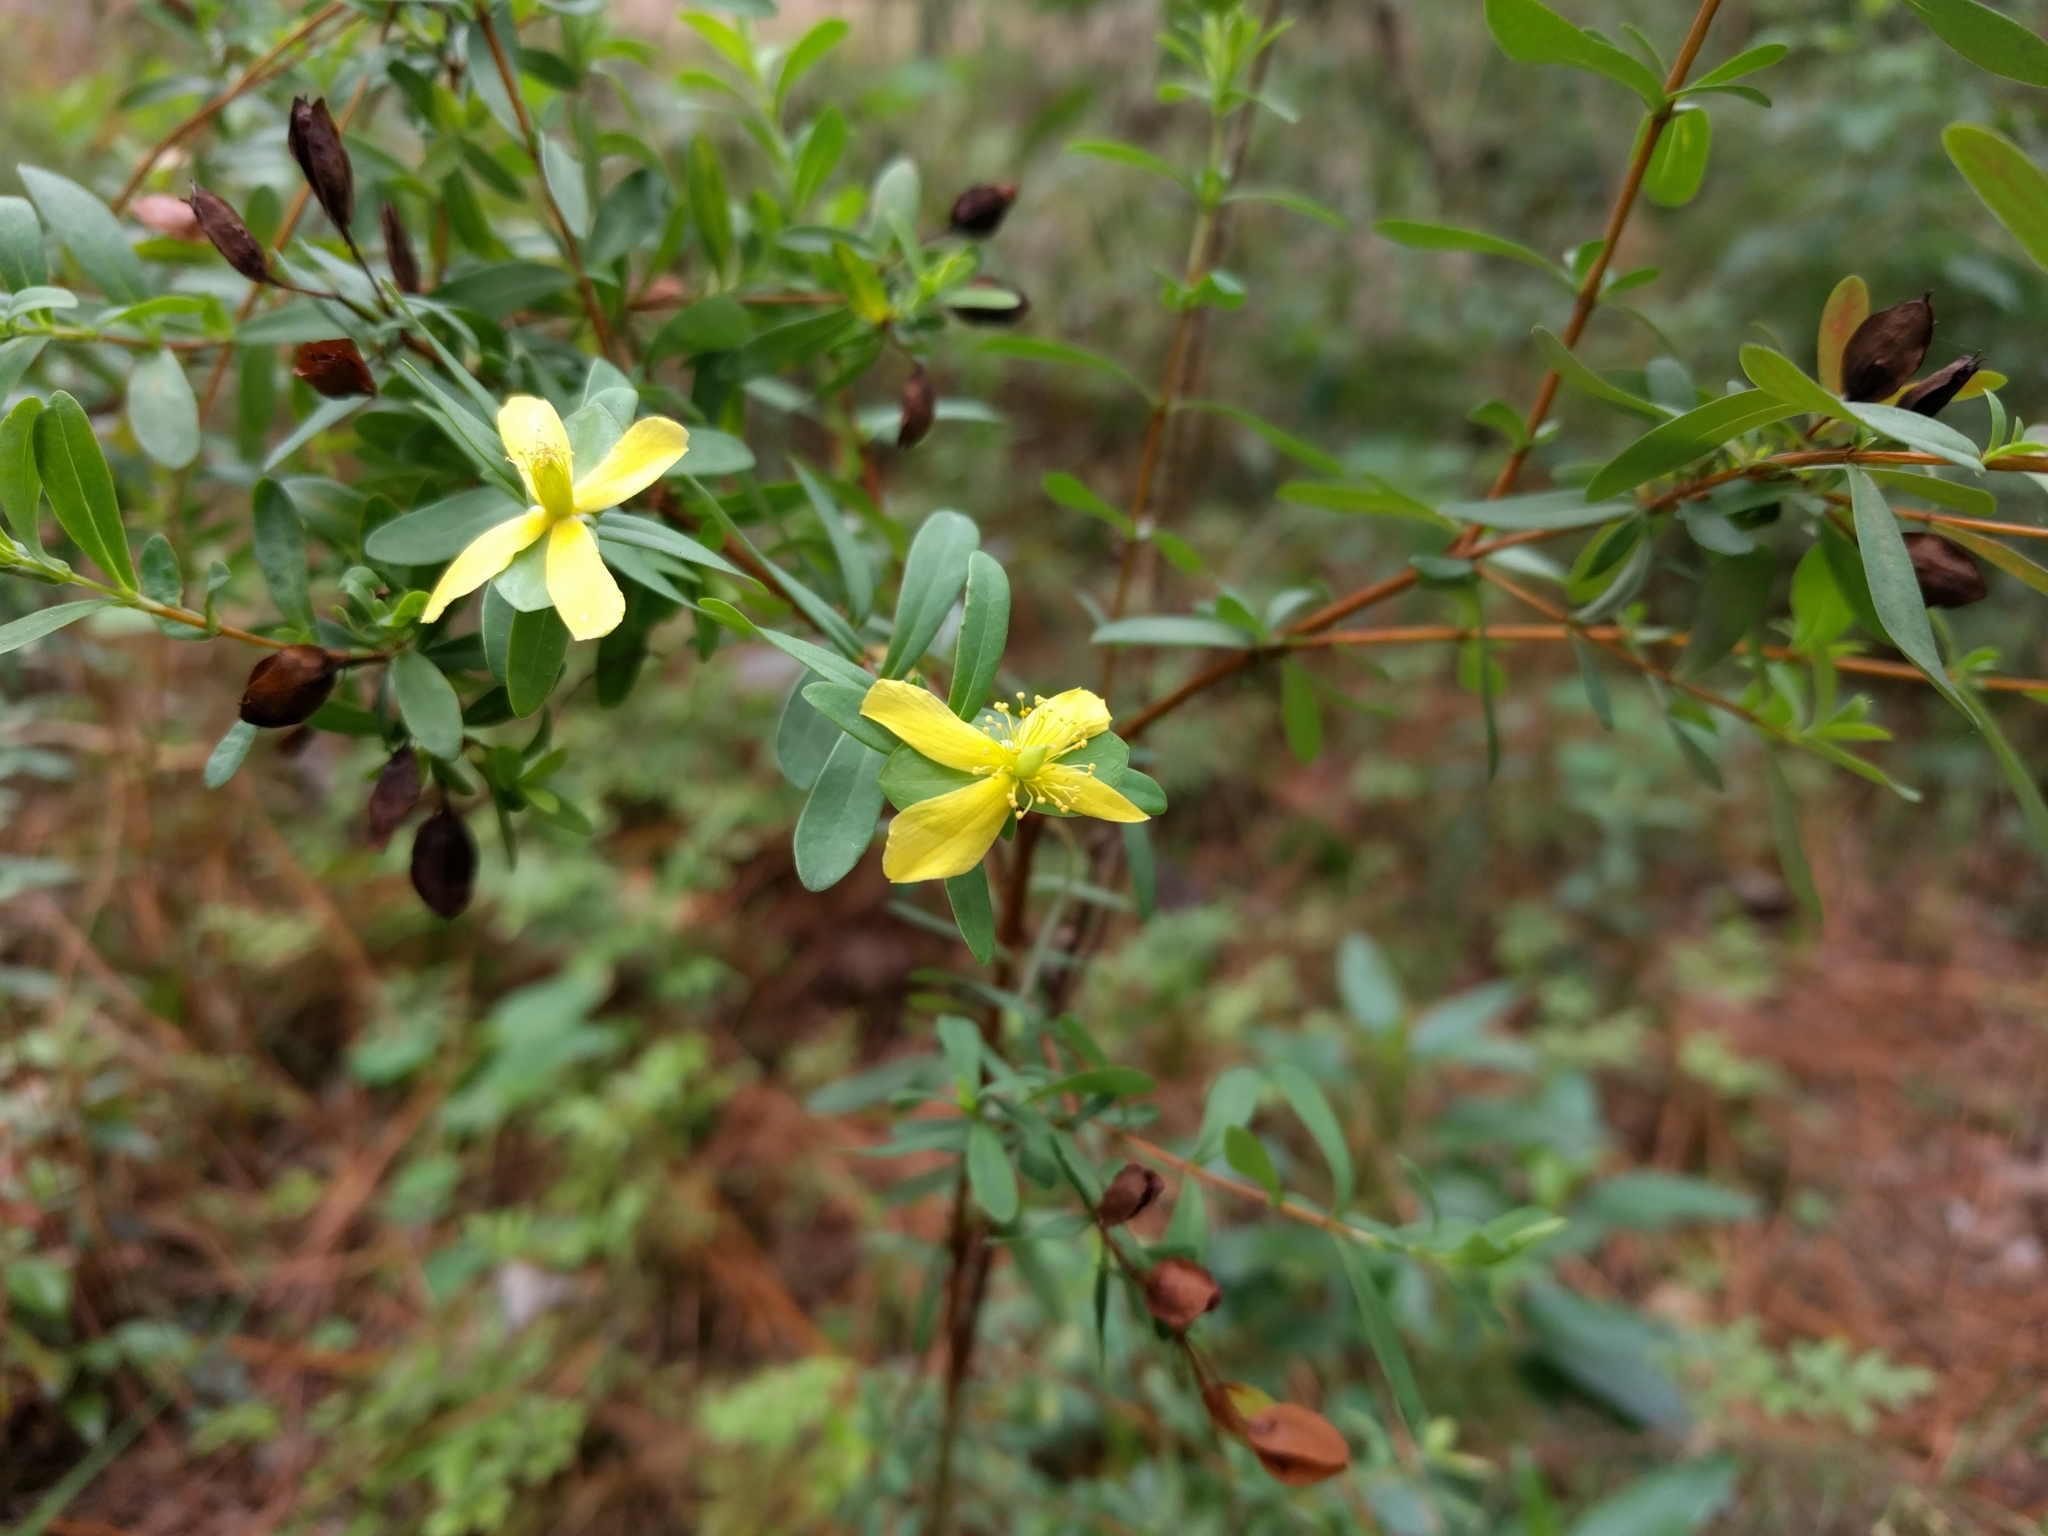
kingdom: Plantae
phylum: Tracheophyta
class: Magnoliopsida
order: Malpighiales
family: Hypericaceae
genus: Hypericum
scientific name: Hypericum hypericoides
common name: St. andrew's cross
